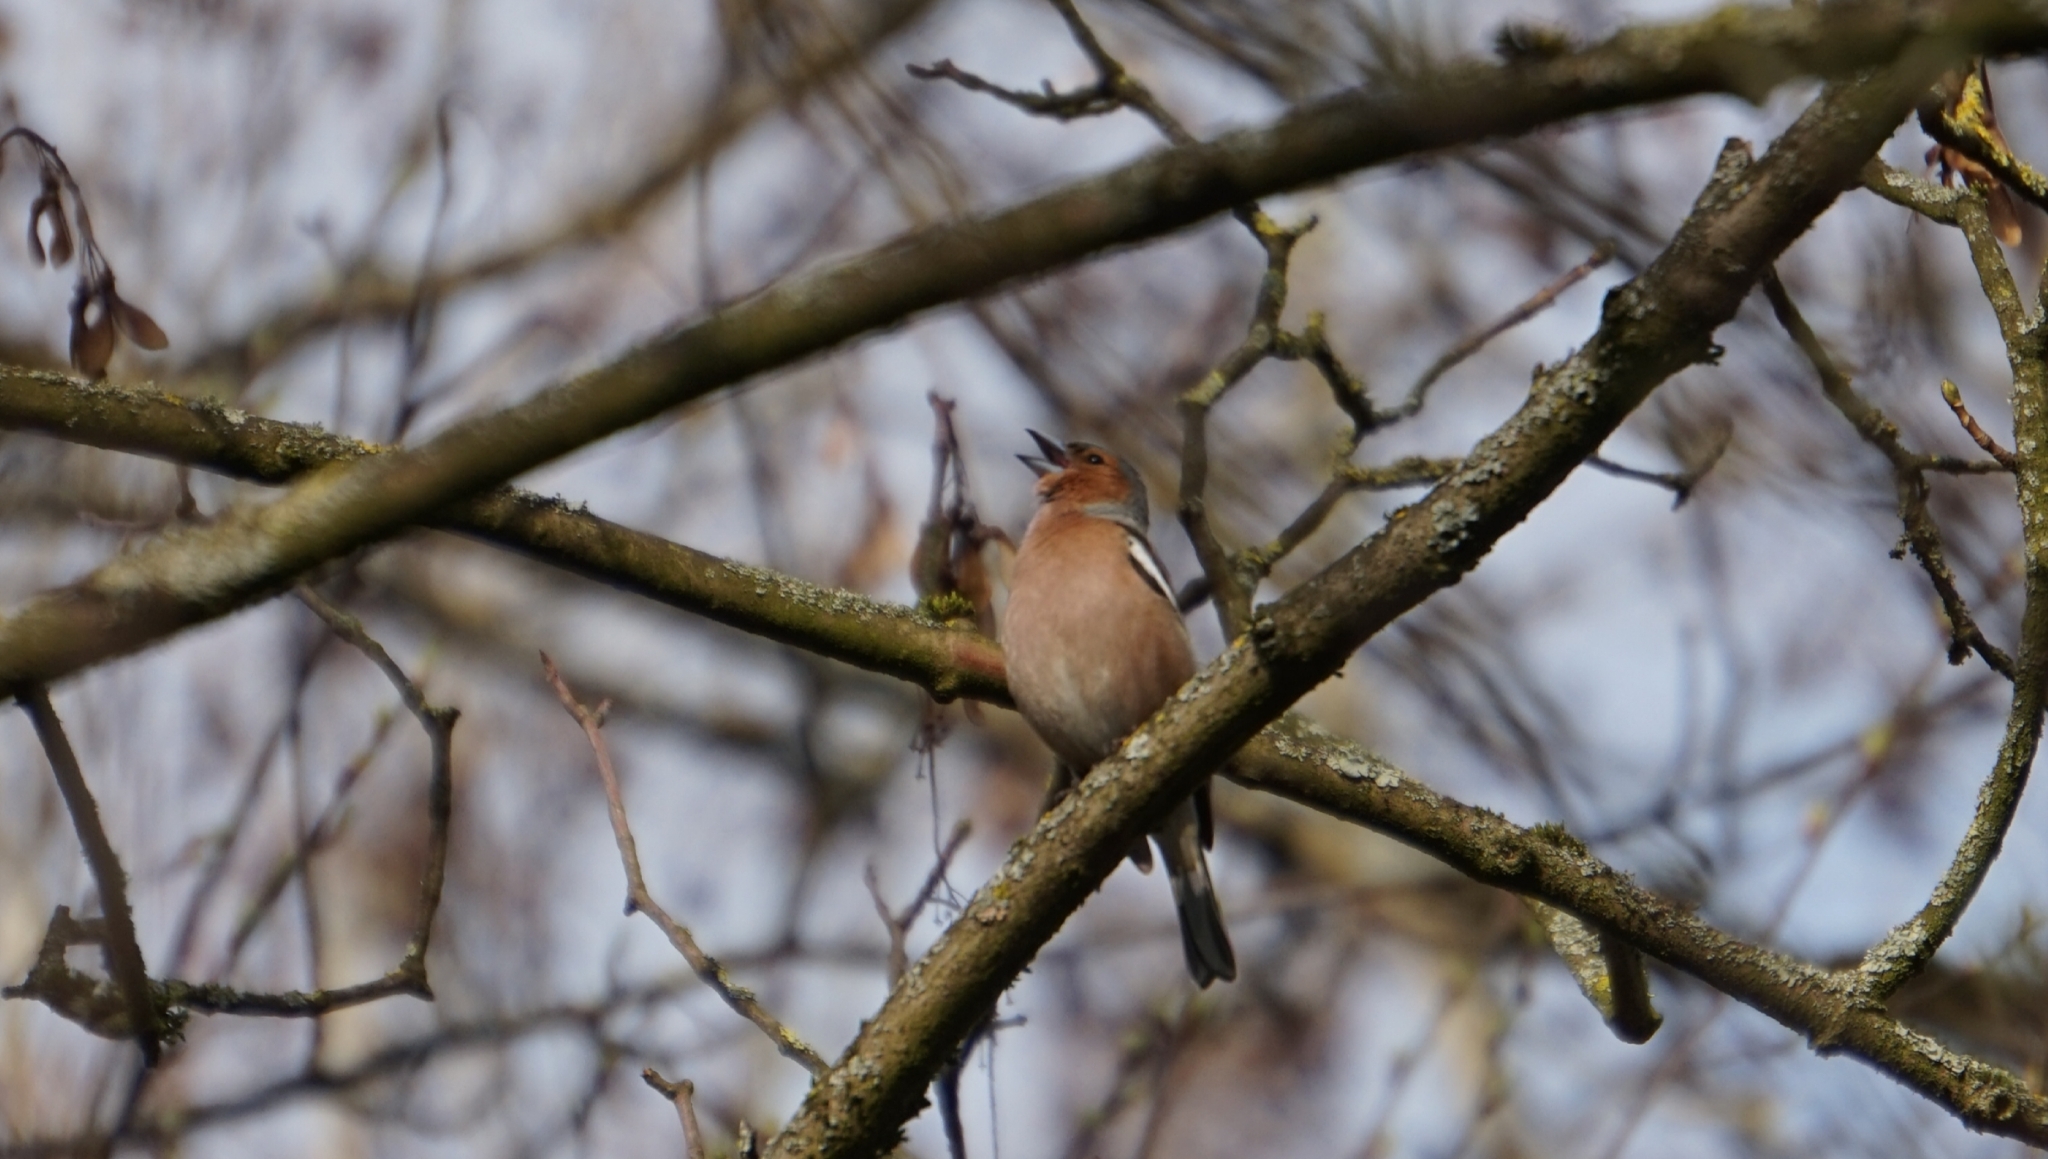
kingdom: Animalia
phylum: Chordata
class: Aves
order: Passeriformes
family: Fringillidae
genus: Fringilla
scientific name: Fringilla coelebs
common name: Common chaffinch
